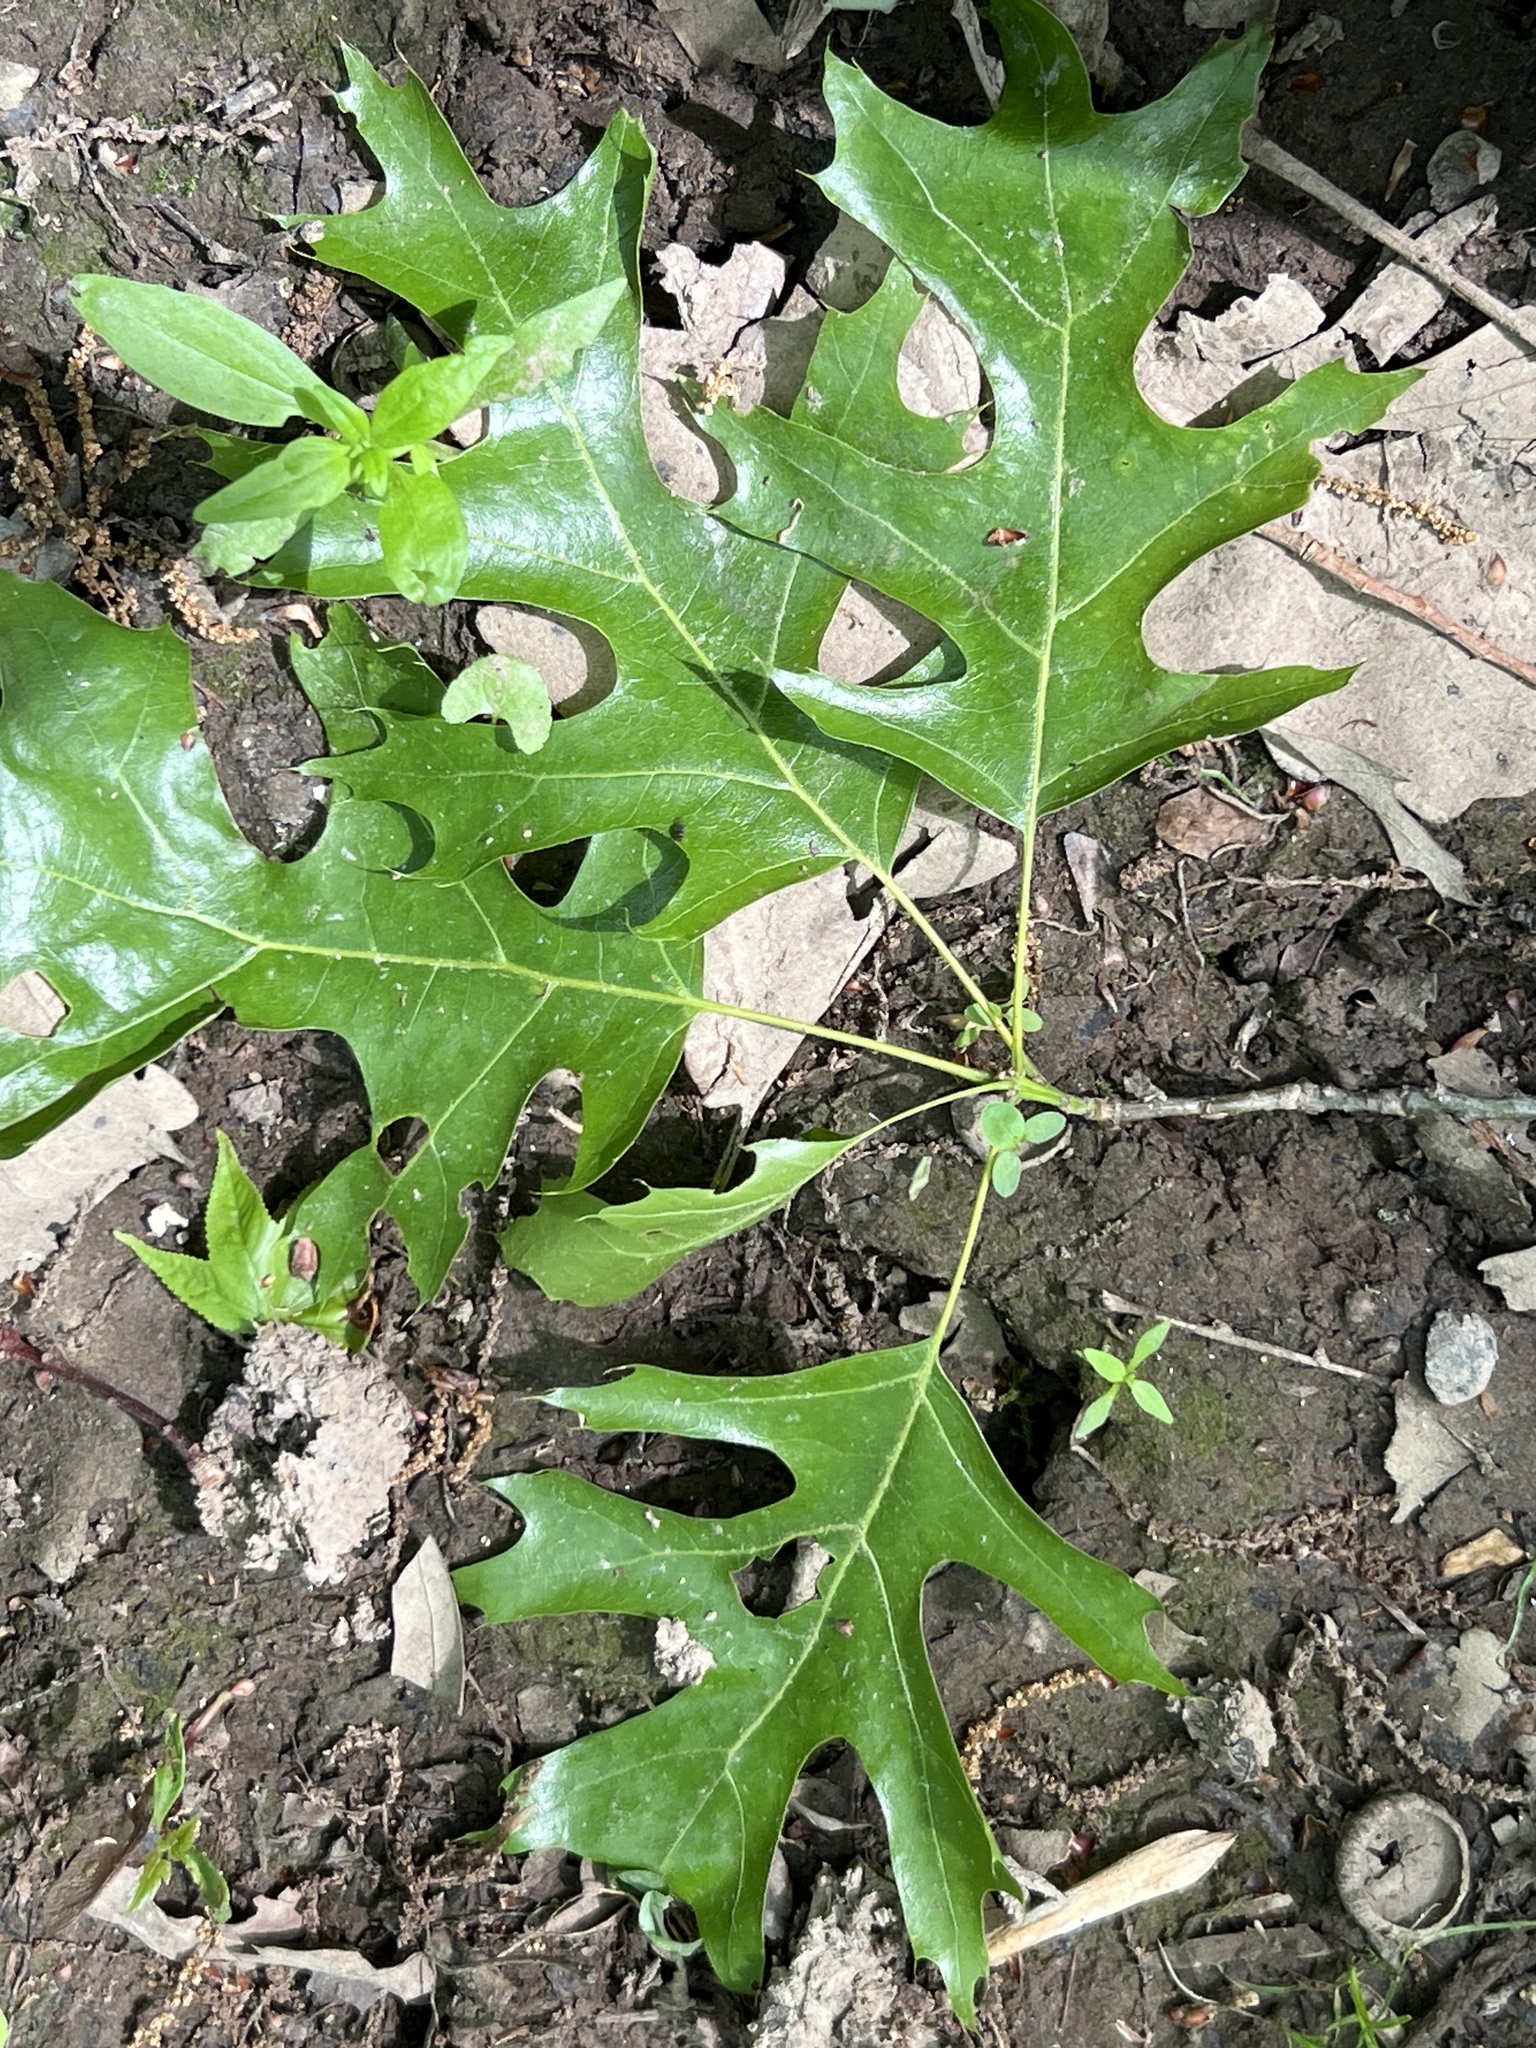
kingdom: Plantae
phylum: Tracheophyta
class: Magnoliopsida
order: Fagales
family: Fagaceae
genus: Quercus
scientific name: Quercus shumardii
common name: Shumard oak
